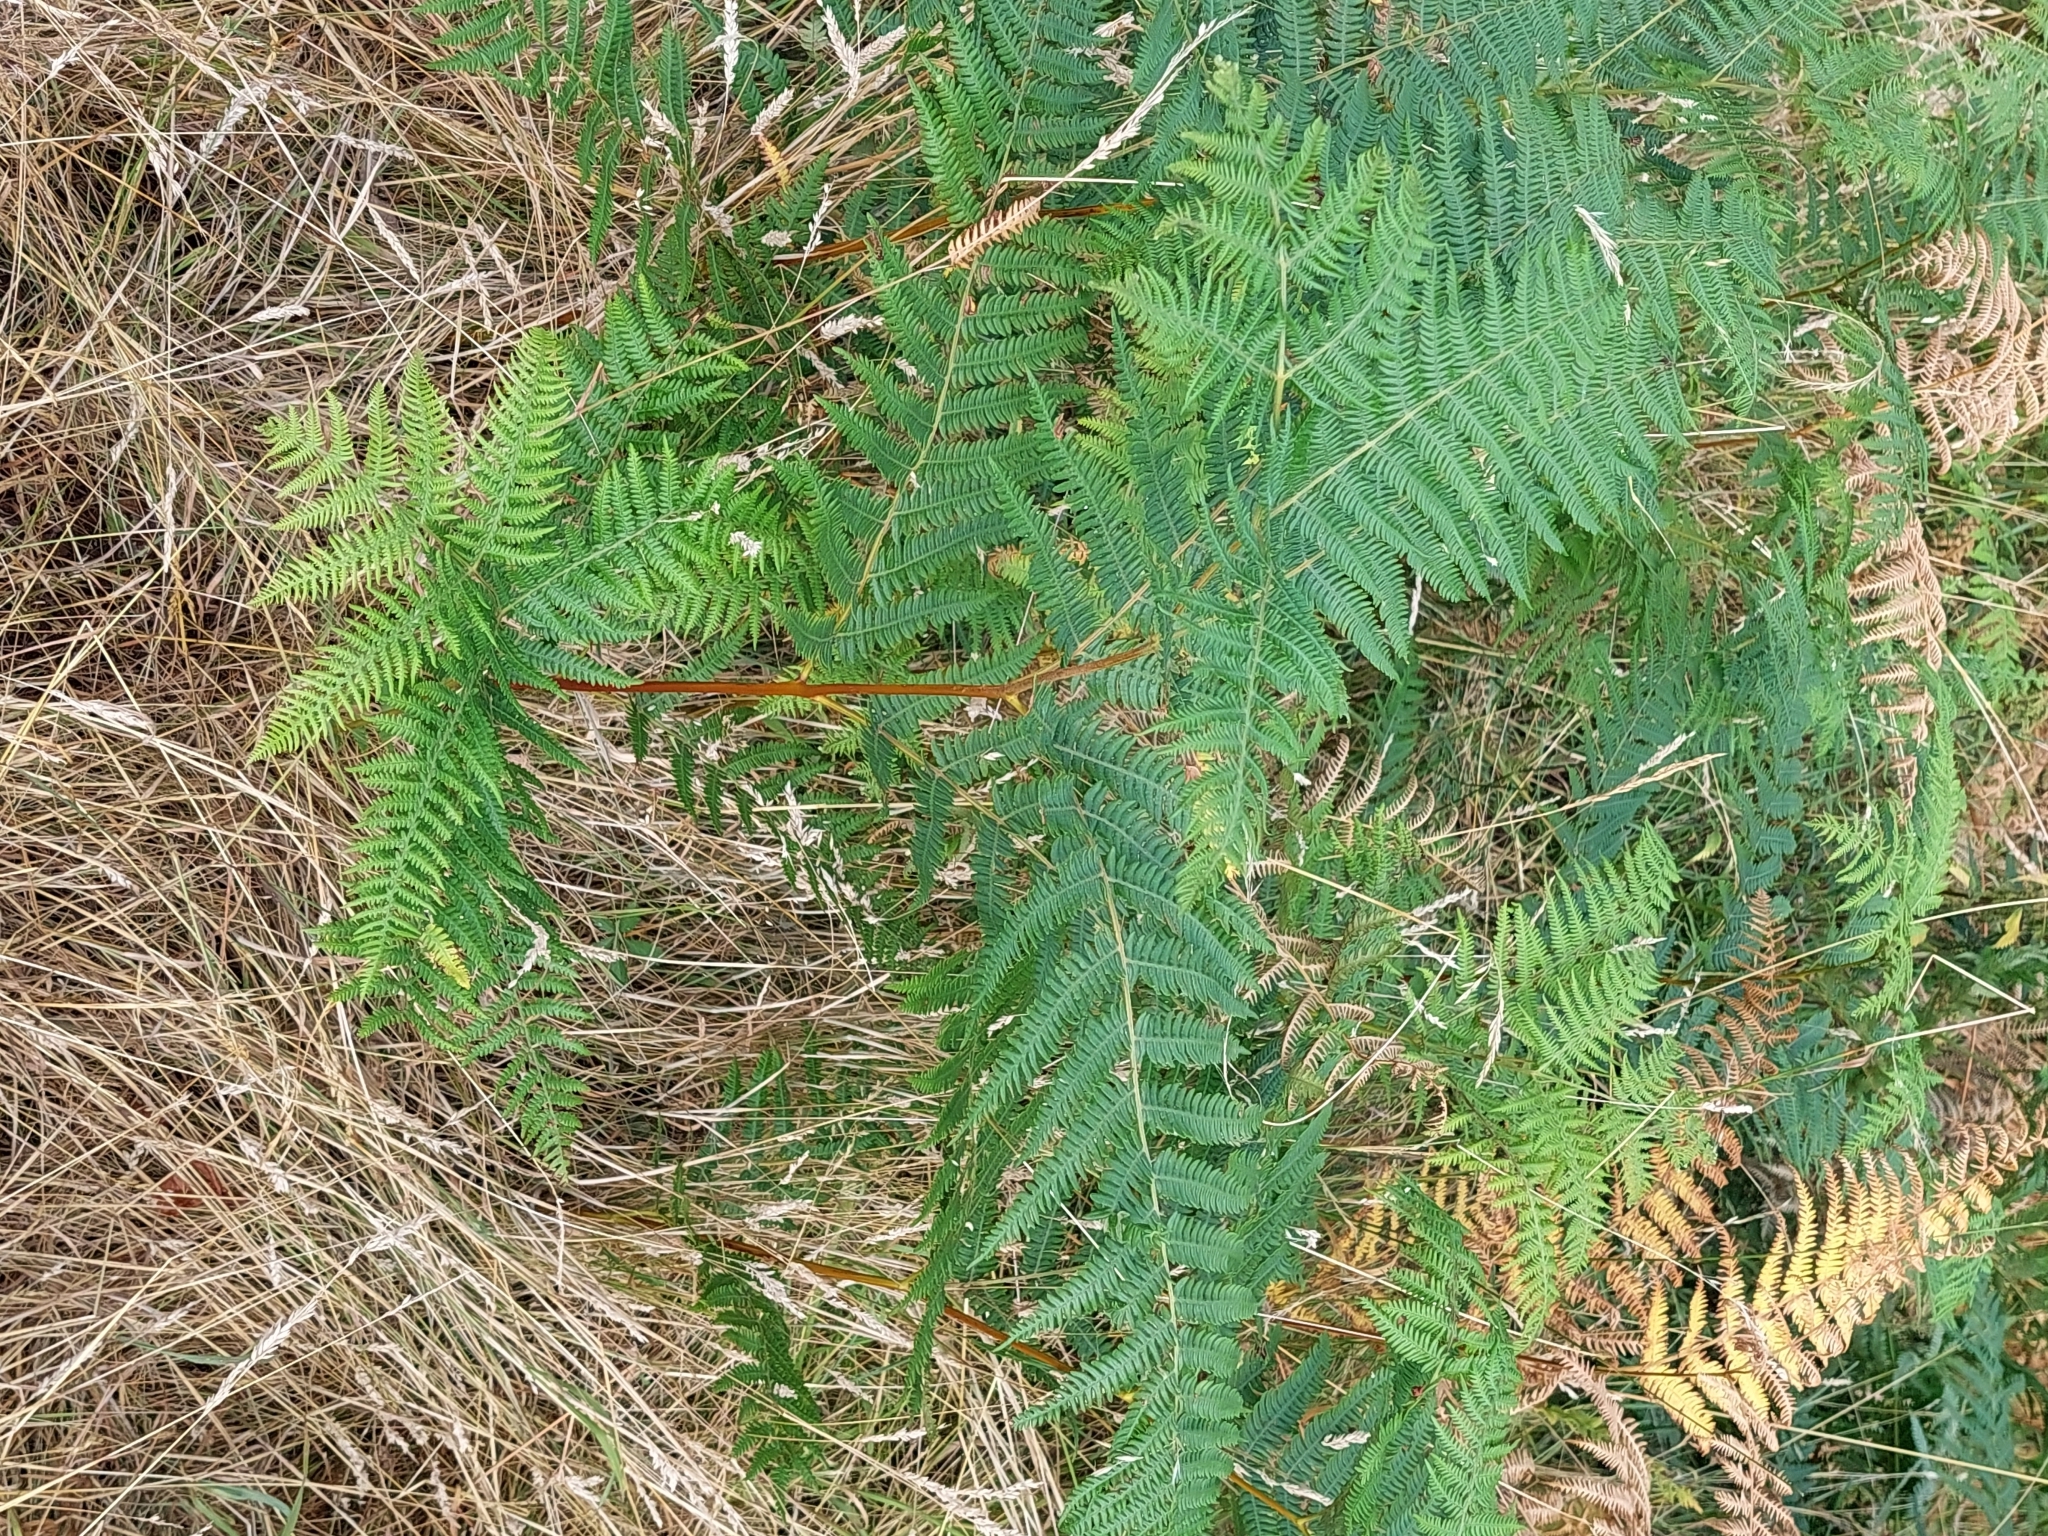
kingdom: Plantae
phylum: Tracheophyta
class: Polypodiopsida
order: Polypodiales
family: Dennstaedtiaceae
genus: Pteridium
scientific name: Pteridium aquilinum
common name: Bracken
